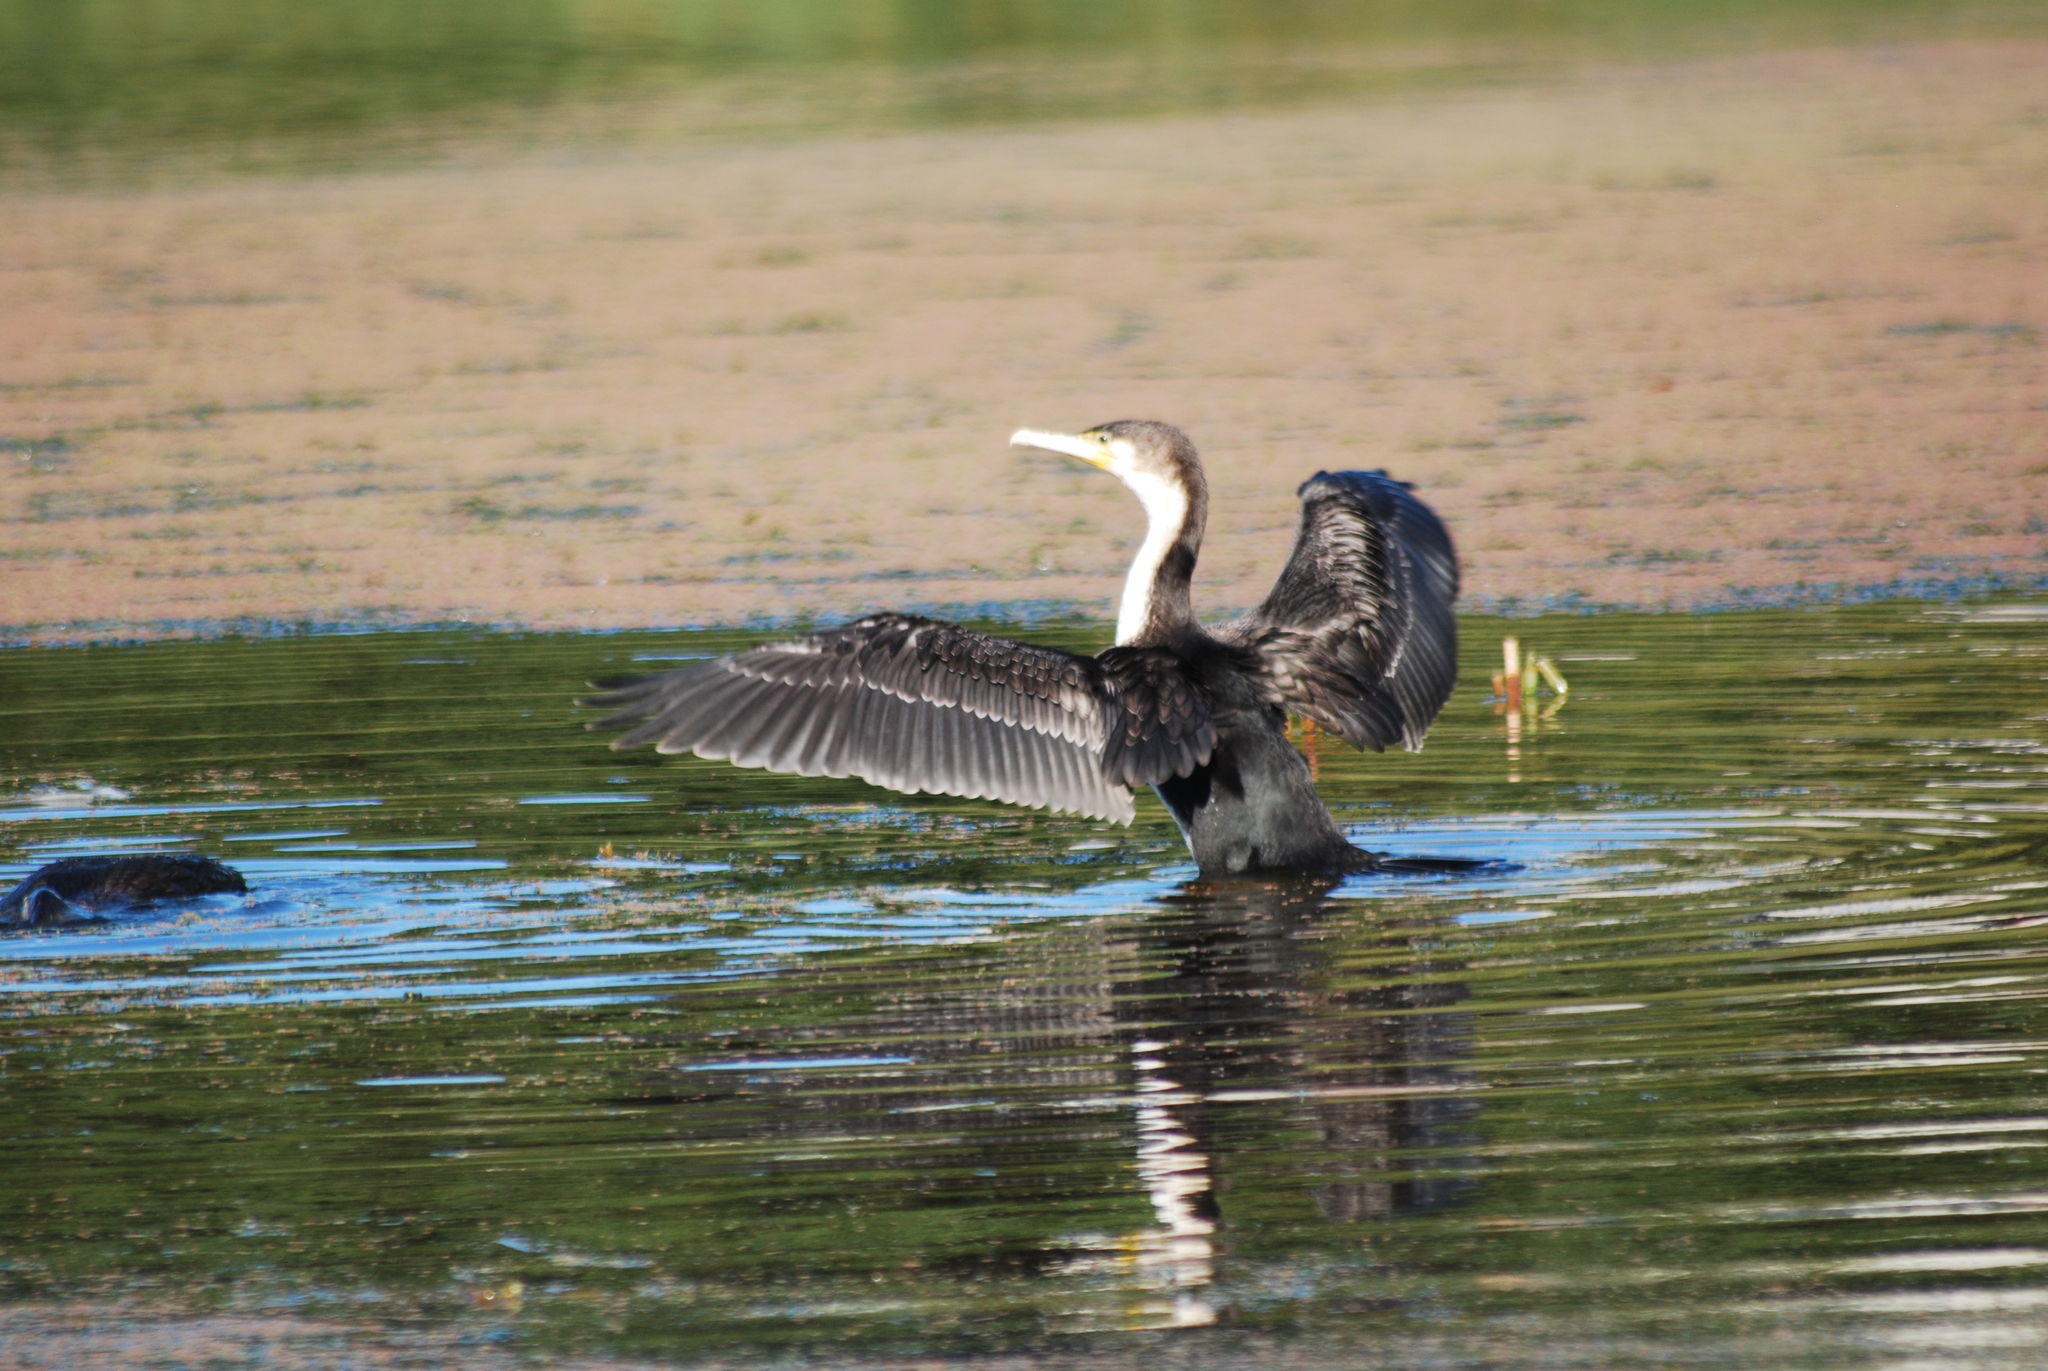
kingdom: Animalia
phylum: Chordata
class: Aves
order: Suliformes
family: Phalacrocoracidae
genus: Phalacrocorax
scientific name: Phalacrocorax carbo
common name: Great cormorant
